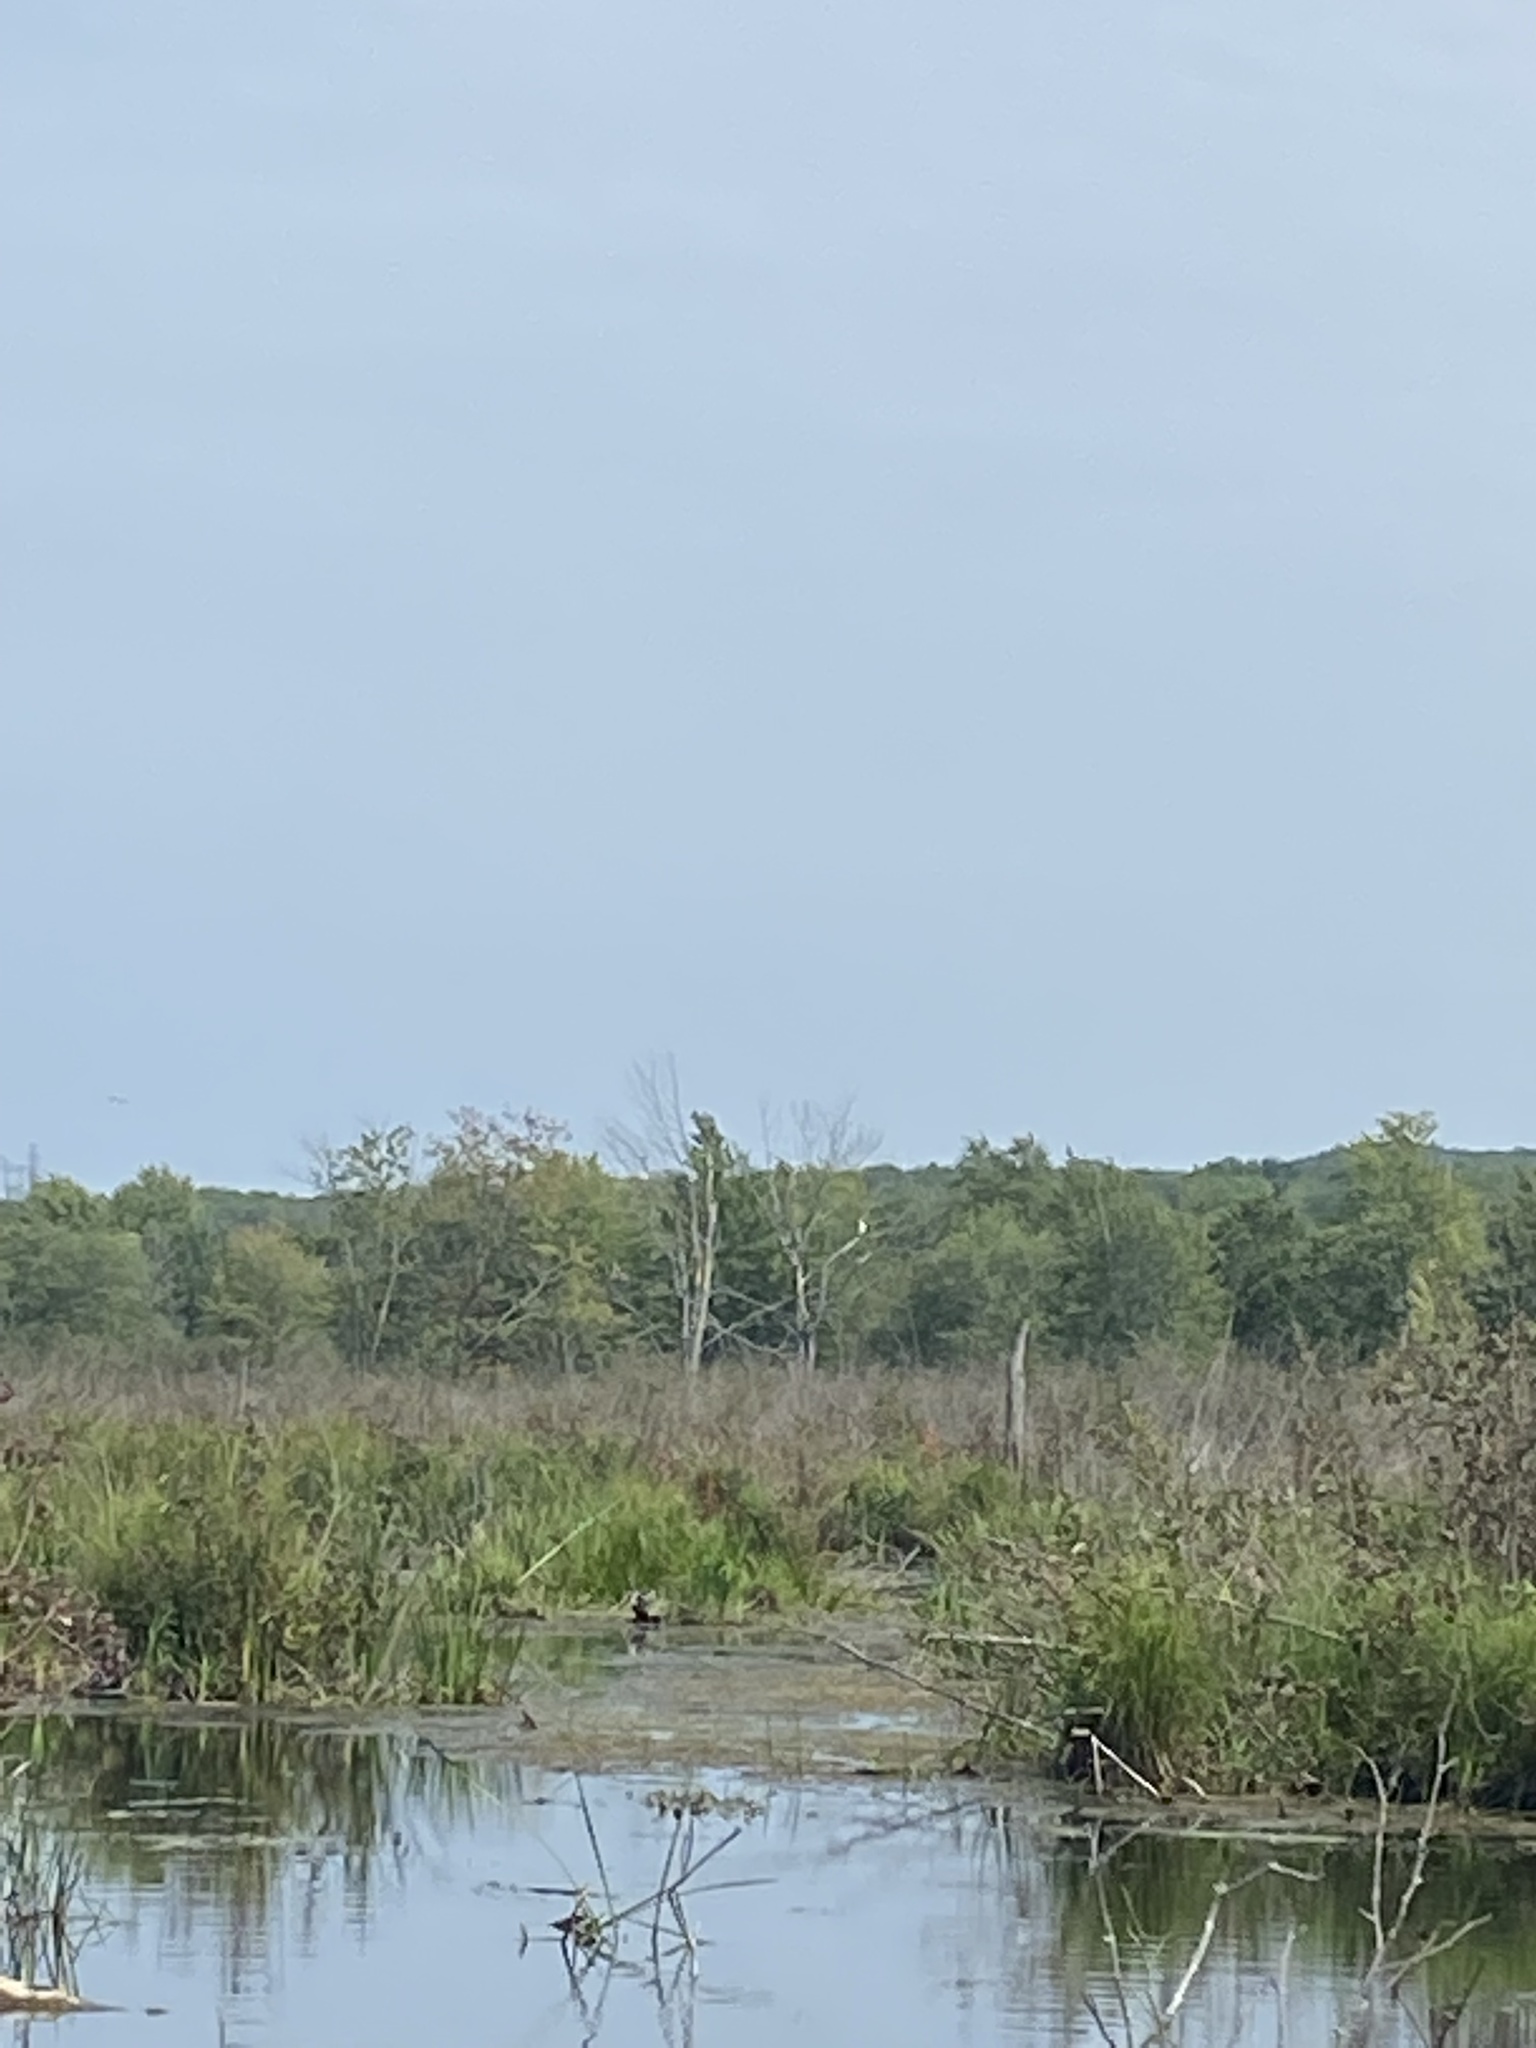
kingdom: Animalia
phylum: Chordata
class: Aves
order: Pelecaniformes
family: Ardeidae
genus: Ardea
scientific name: Ardea alba
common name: Great egret
